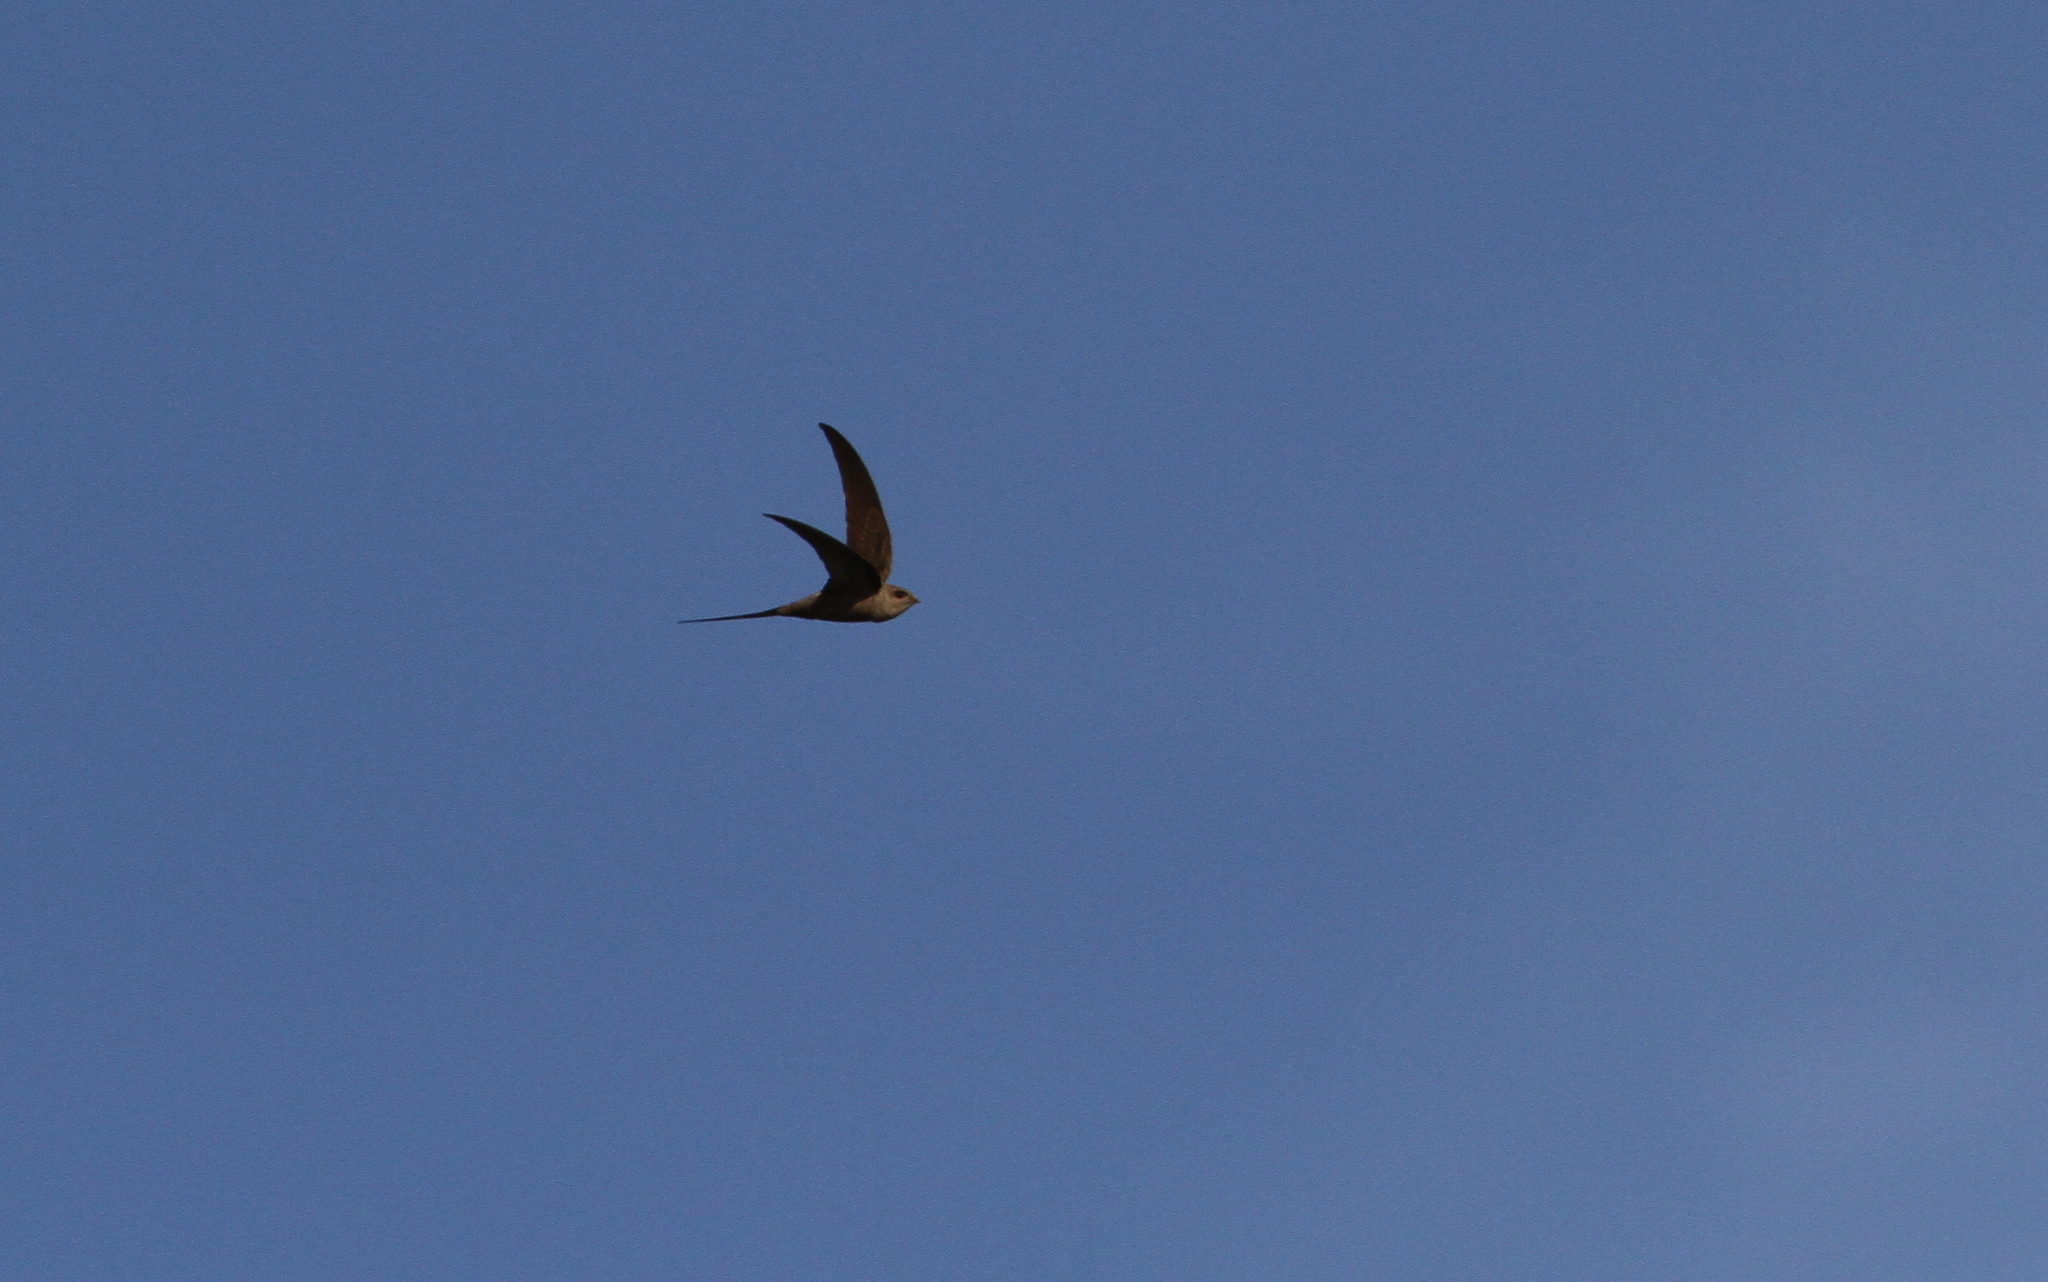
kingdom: Animalia
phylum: Chordata
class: Aves
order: Apodiformes
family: Apodidae
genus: Cypsiurus
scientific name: Cypsiurus parvus
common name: African palm swift
